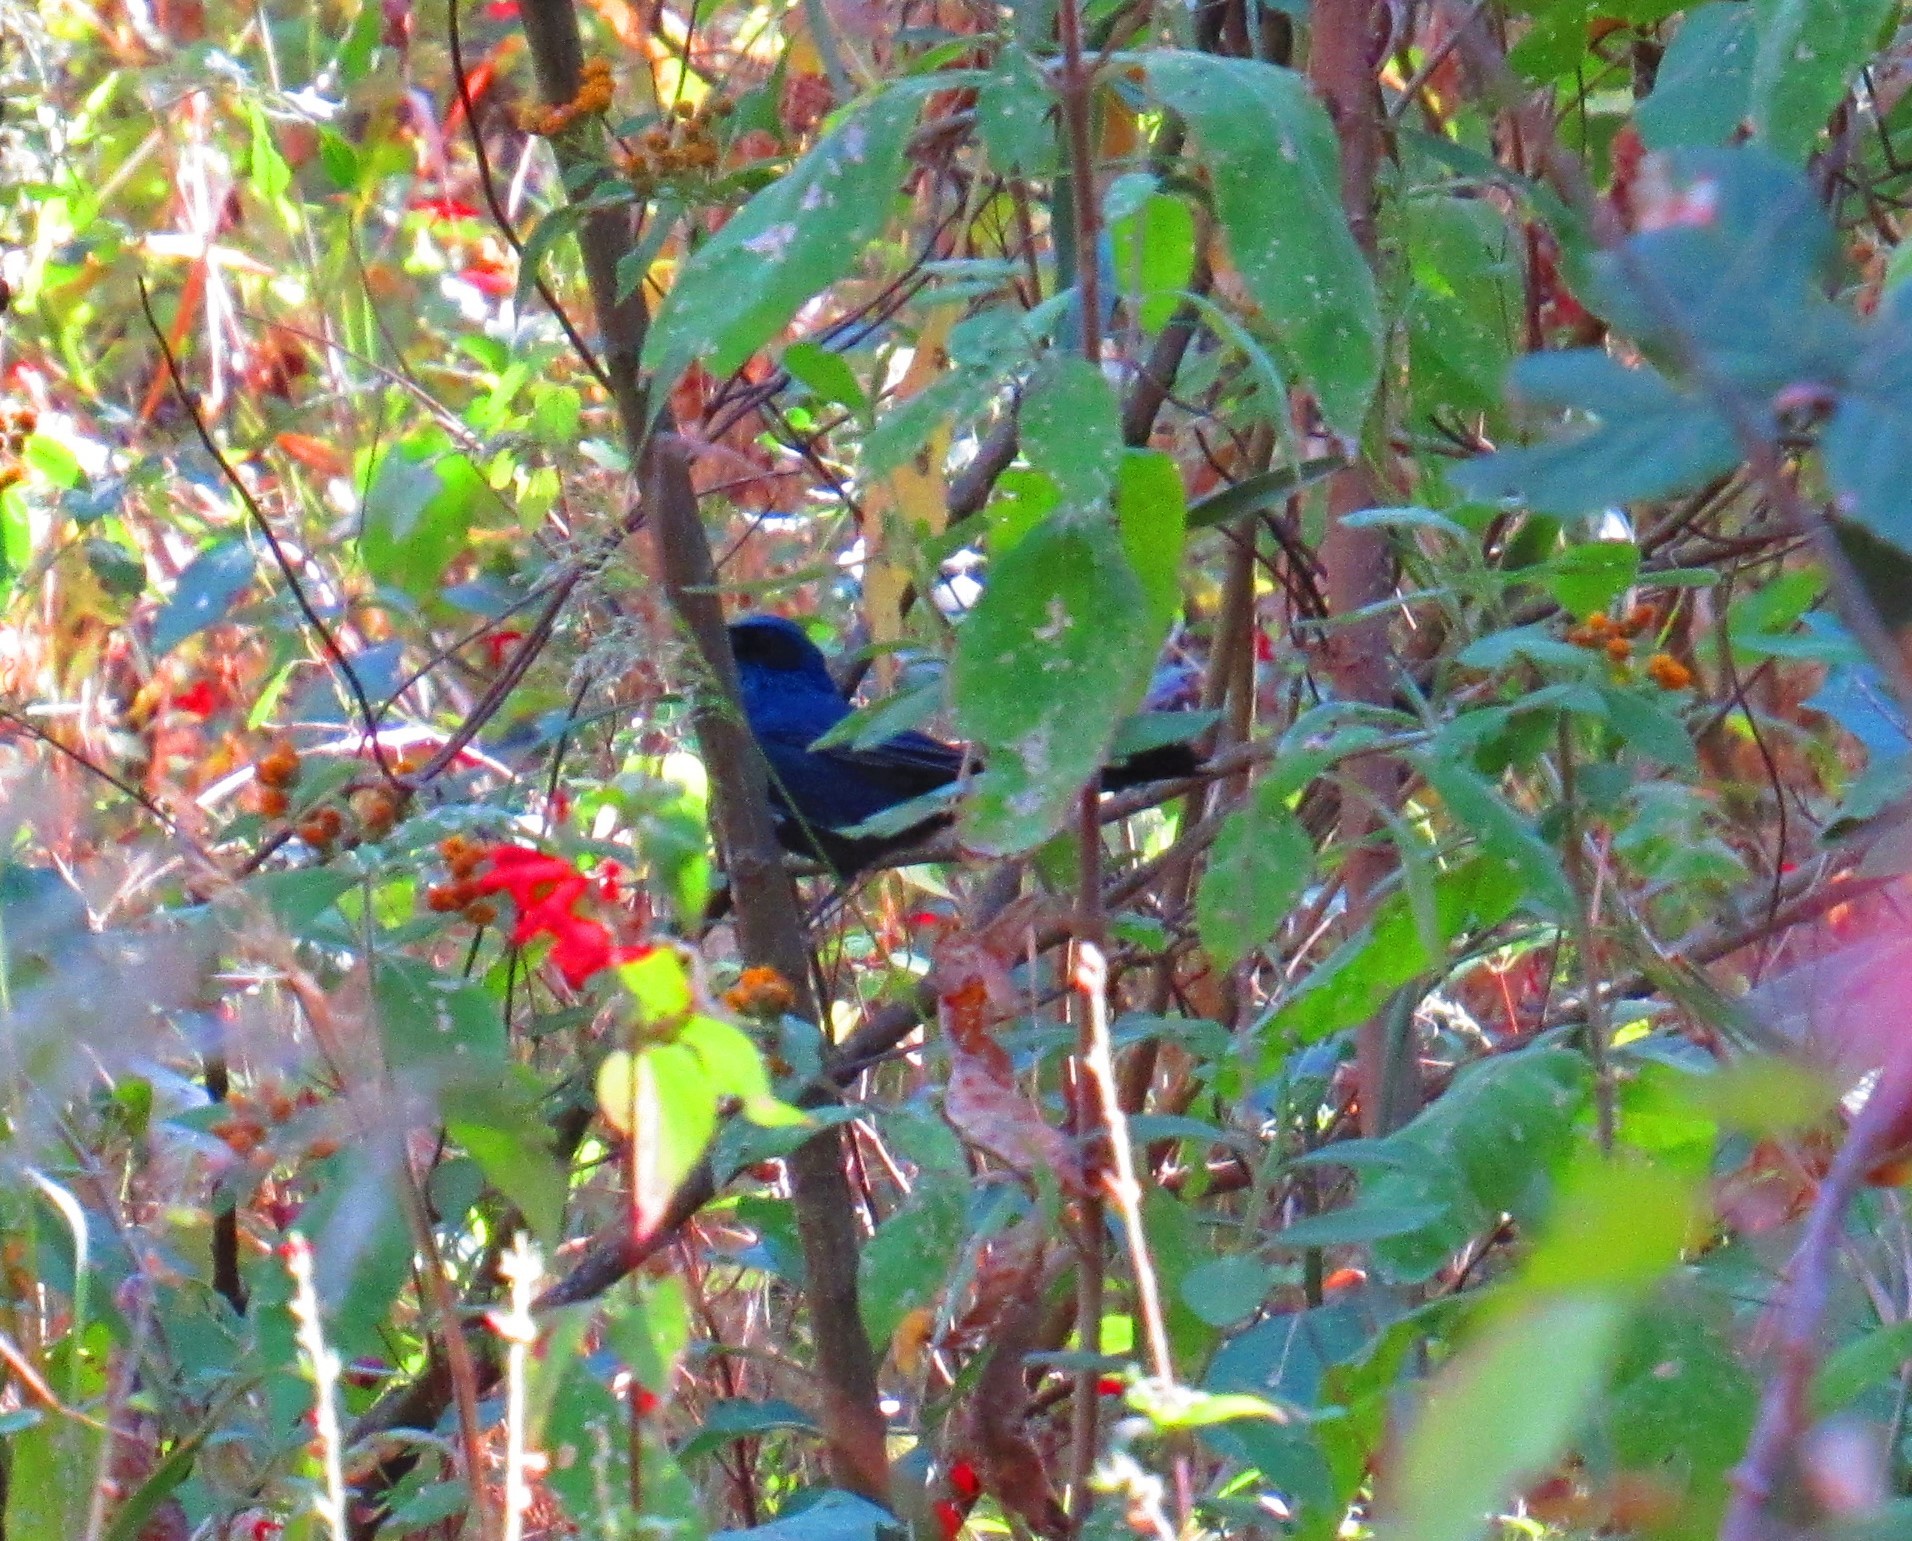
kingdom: Animalia
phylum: Chordata
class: Aves
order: Passeriformes
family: Mimidae
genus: Melanotis
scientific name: Melanotis caerulescens
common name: Blue mockingbird
